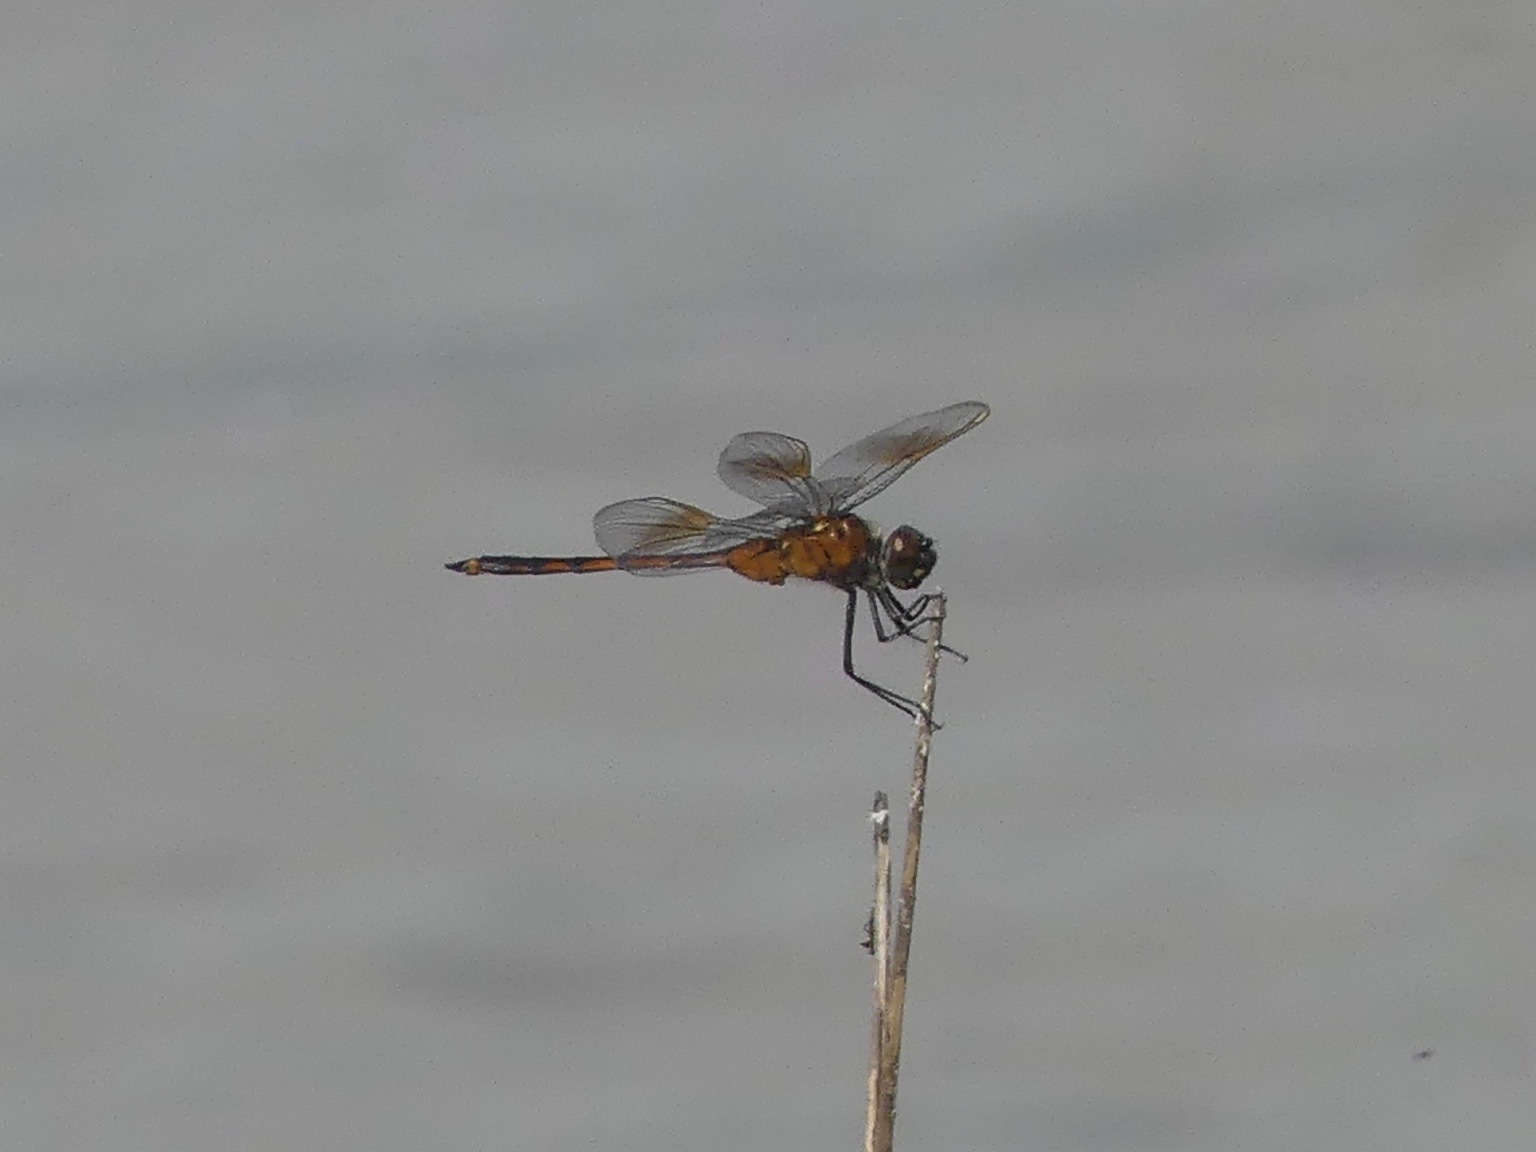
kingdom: Animalia
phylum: Arthropoda
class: Insecta
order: Odonata
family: Libellulidae
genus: Brachymesia
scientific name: Brachymesia gravida
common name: Four-spotted pennant
